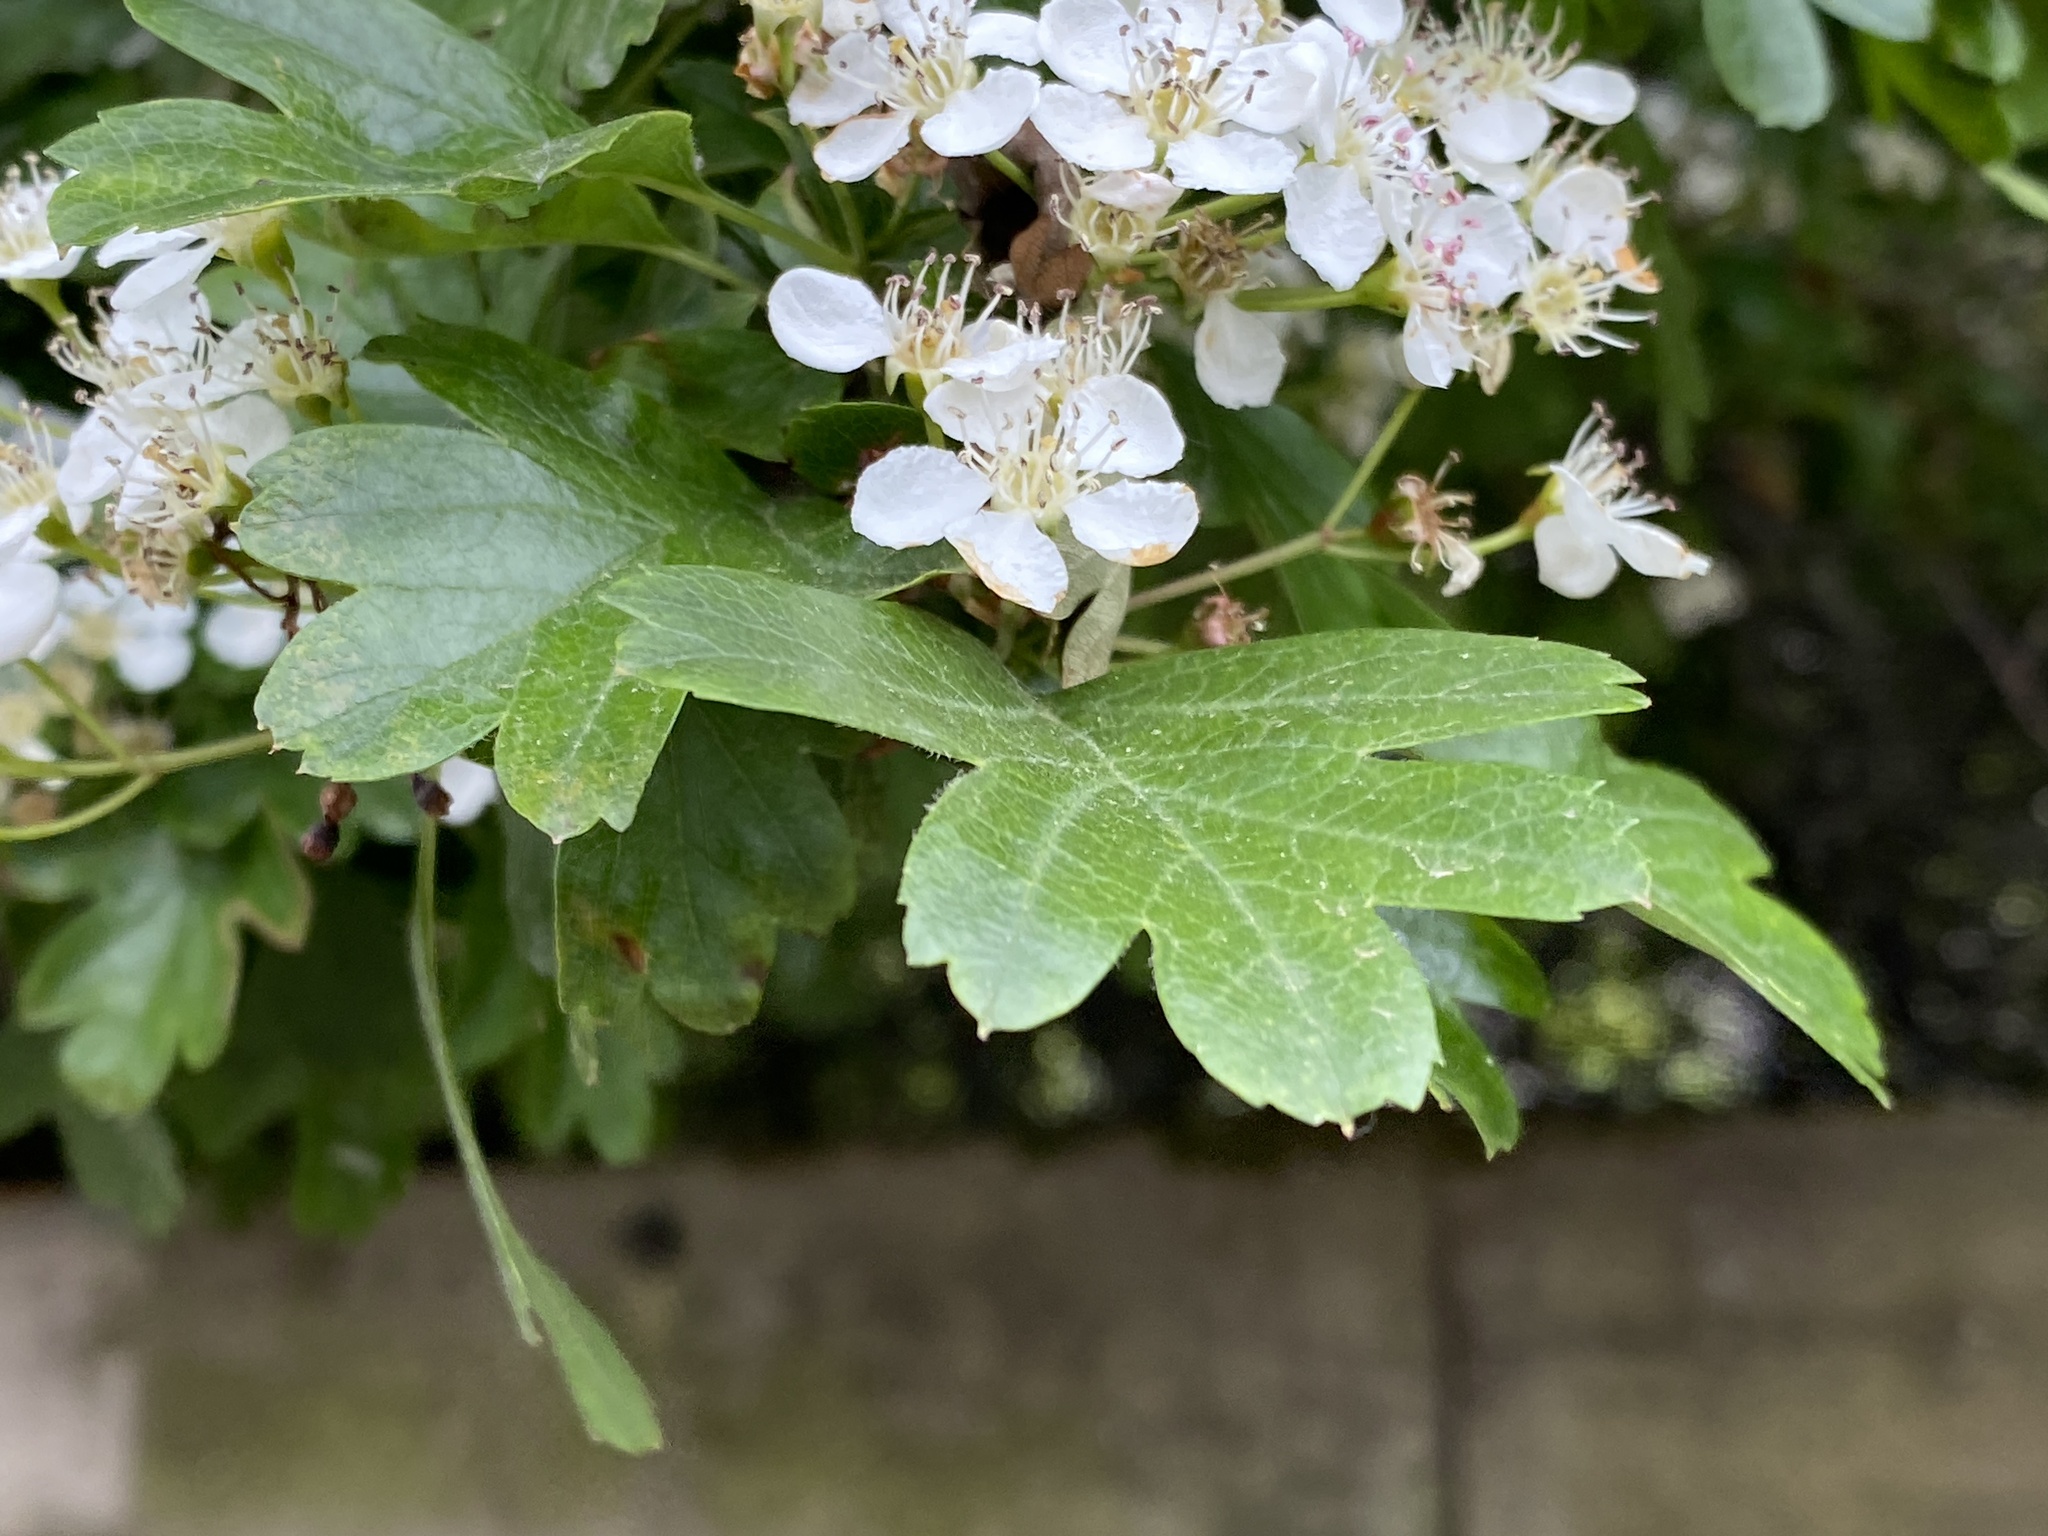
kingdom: Plantae
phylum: Tracheophyta
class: Magnoliopsida
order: Rosales
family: Rosaceae
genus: Crataegus
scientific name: Crataegus monogyna
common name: Hawthorn
